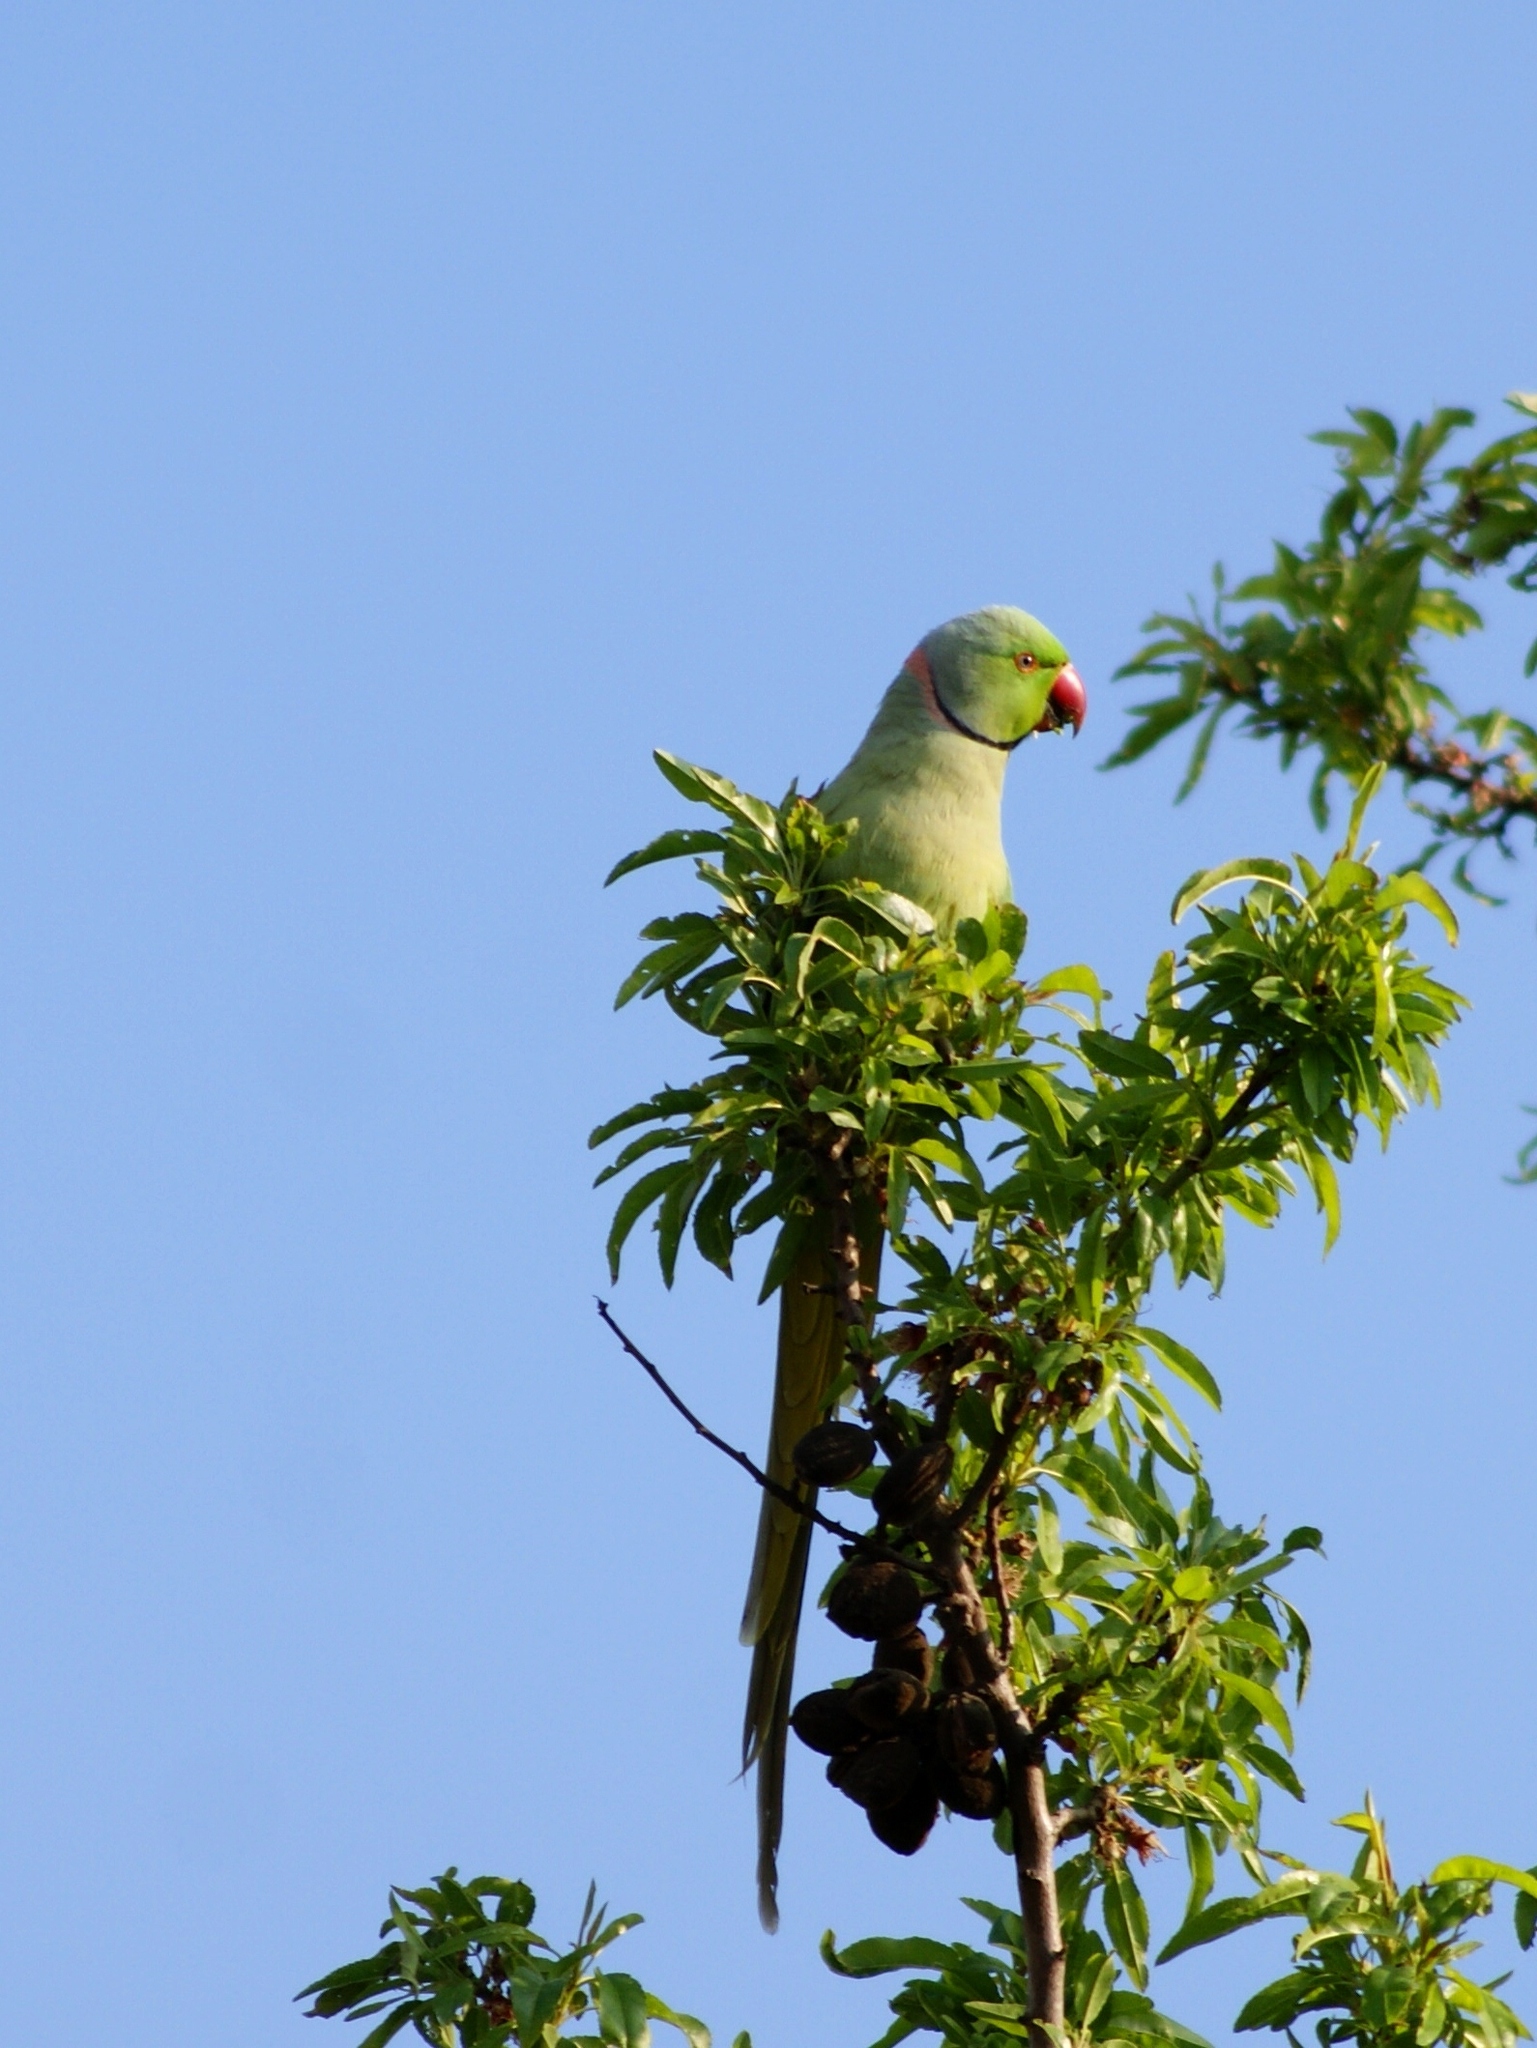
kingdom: Animalia
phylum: Chordata
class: Aves
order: Psittaciformes
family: Psittacidae
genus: Psittacula
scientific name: Psittacula krameri
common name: Rose-ringed parakeet
